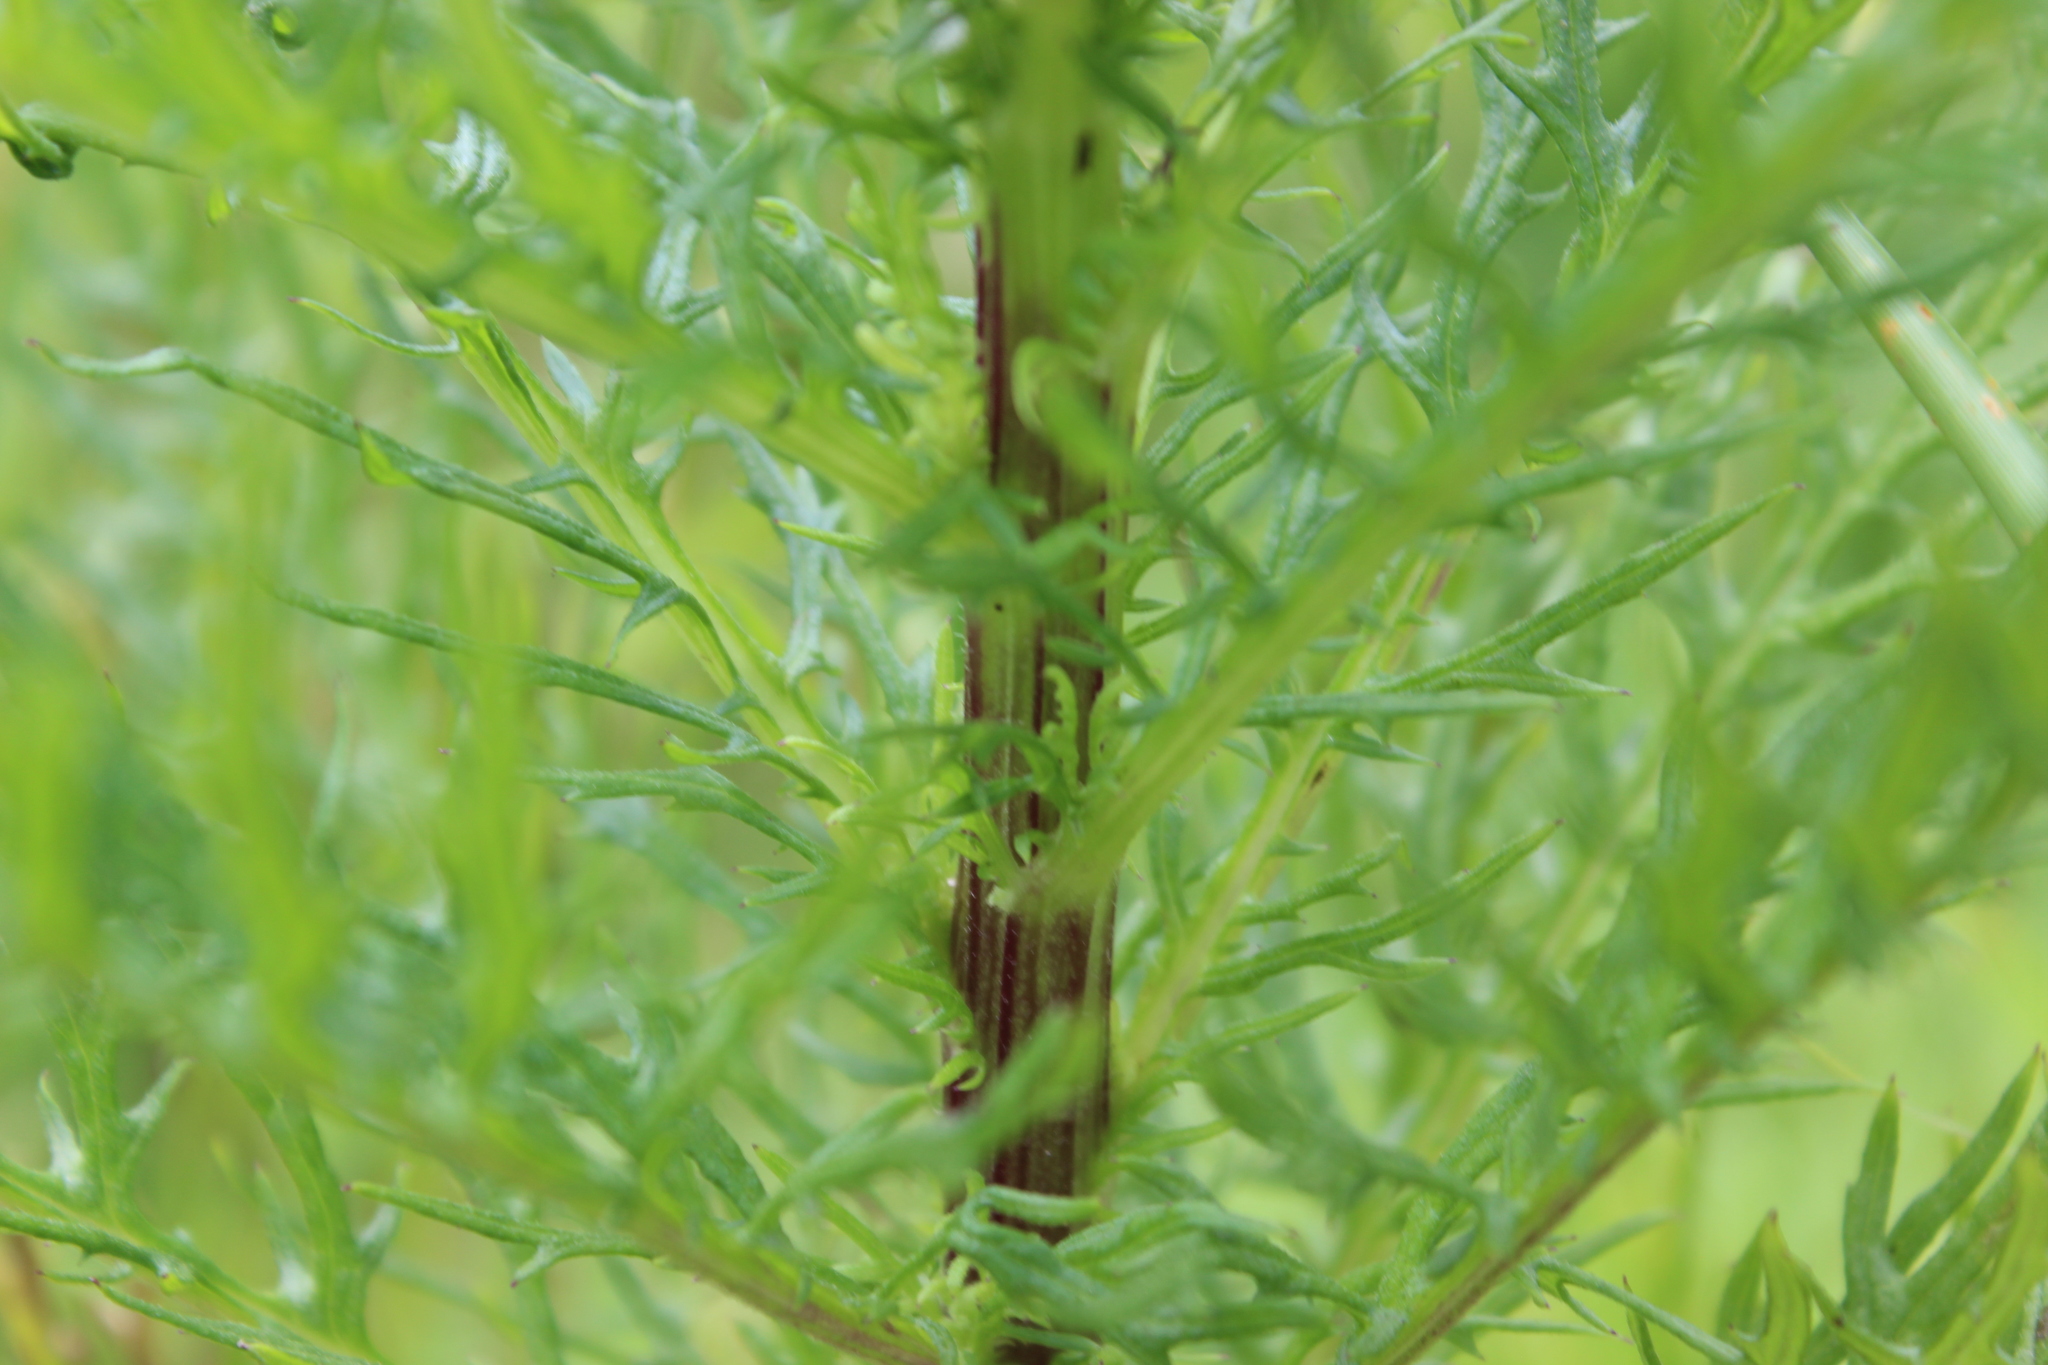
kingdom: Plantae
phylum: Tracheophyta
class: Magnoliopsida
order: Asterales
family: Asteraceae
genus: Senecio
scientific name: Senecio bipinnatisectus
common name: Australian fireweed
